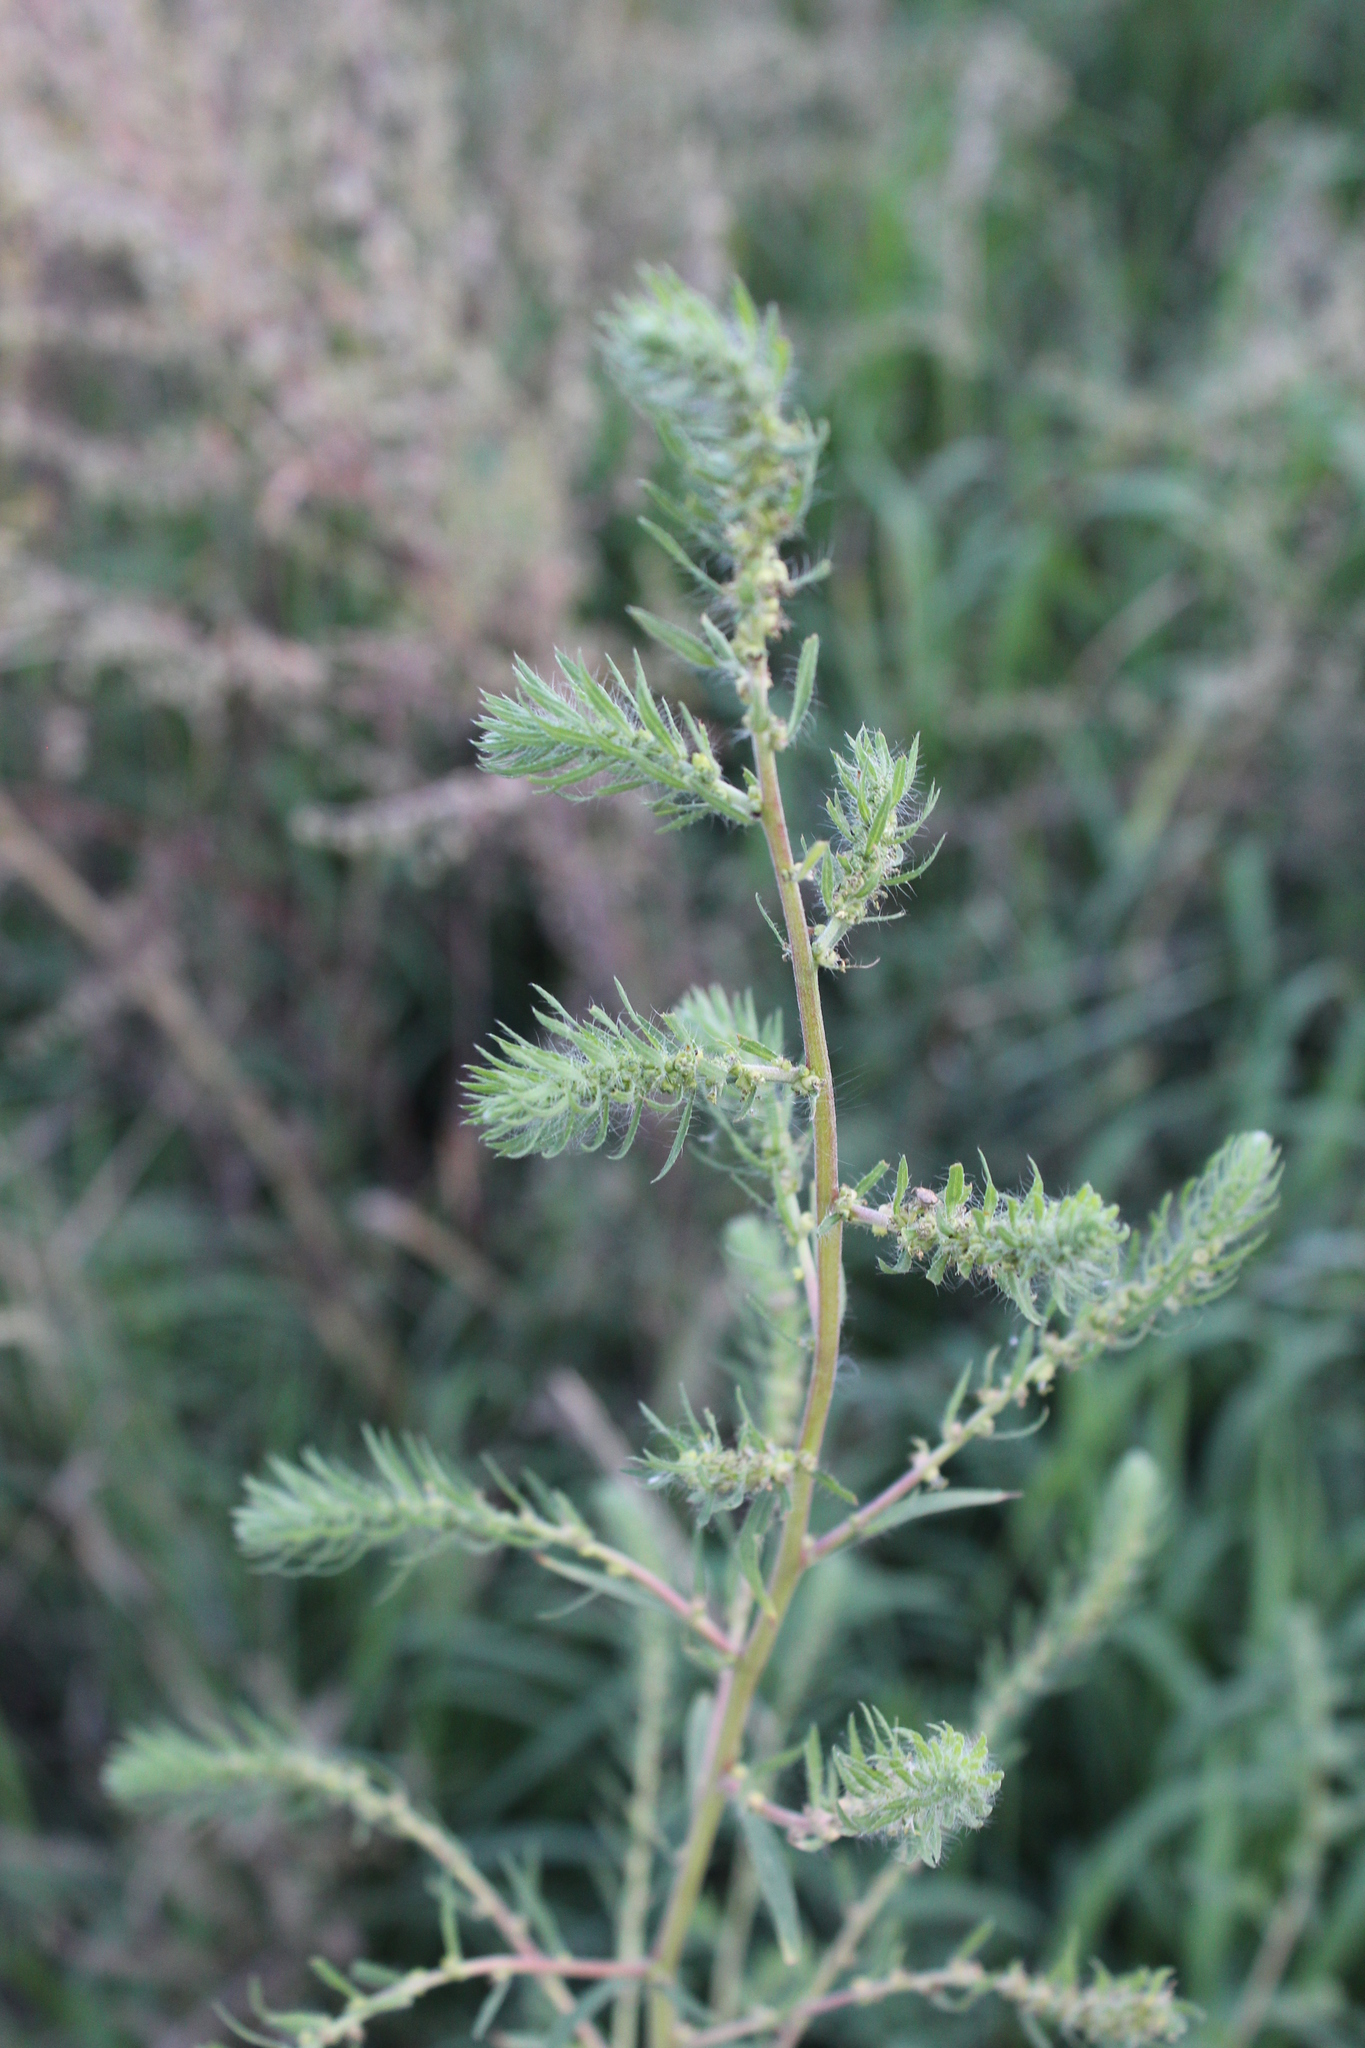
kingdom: Plantae
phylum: Tracheophyta
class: Magnoliopsida
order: Caryophyllales
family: Amaranthaceae
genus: Bassia
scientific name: Bassia scoparia
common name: Belvedere
